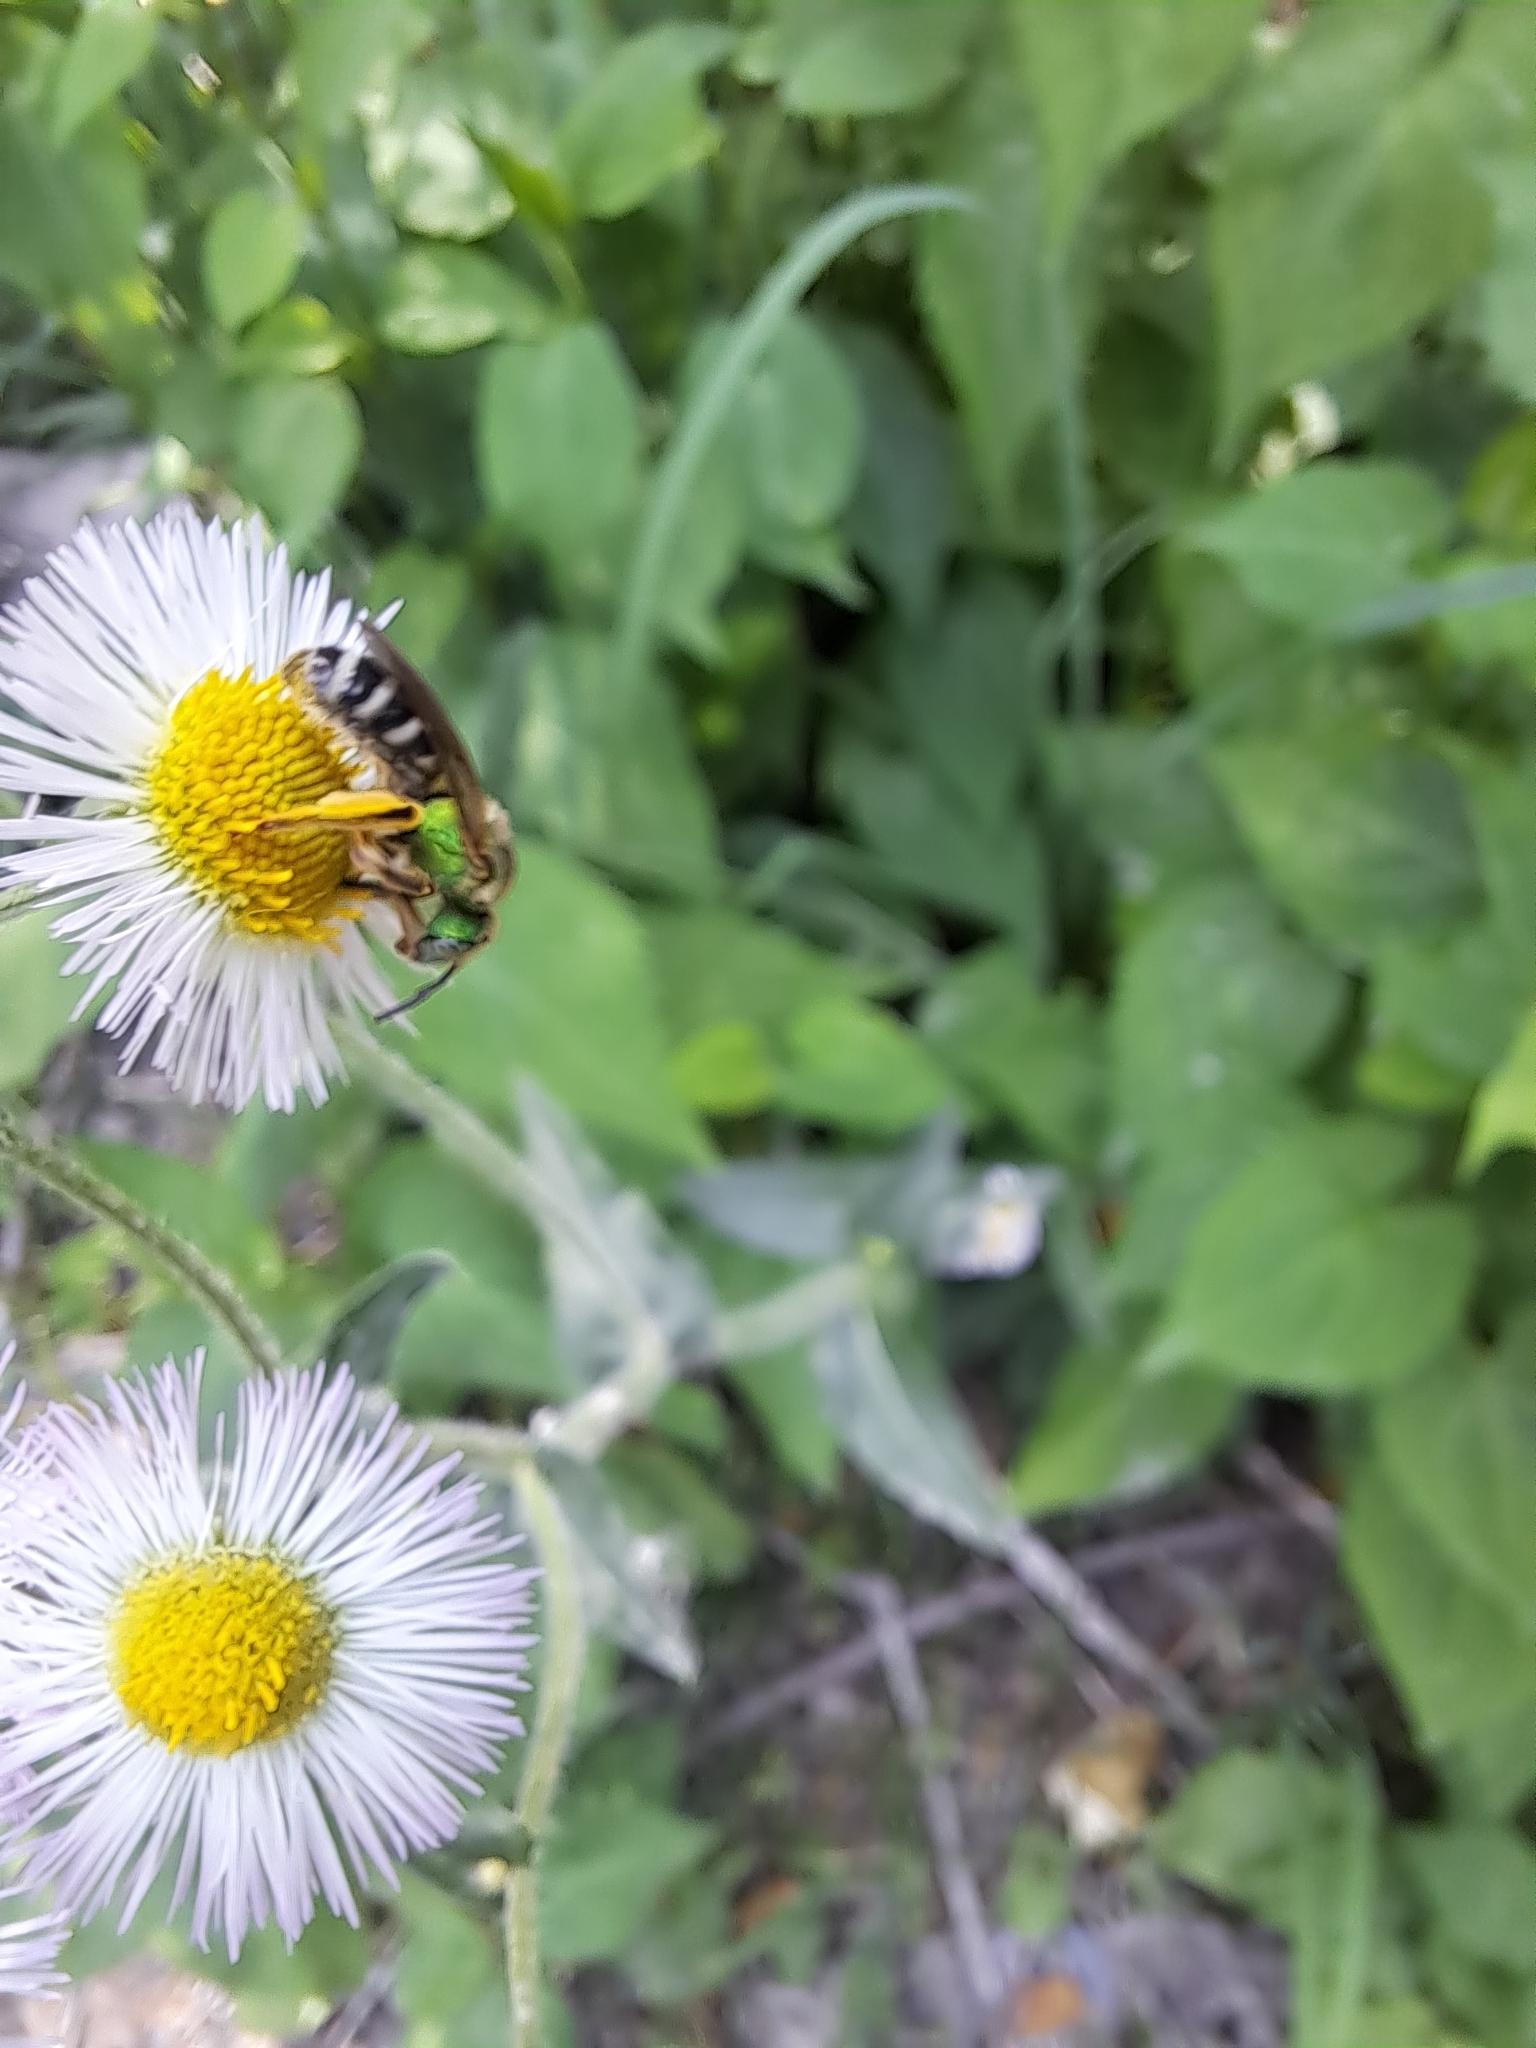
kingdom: Animalia
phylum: Arthropoda
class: Insecta
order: Hymenoptera
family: Halictidae
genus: Agapostemon
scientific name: Agapostemon virescens
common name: Bicolored striped sweat bee
